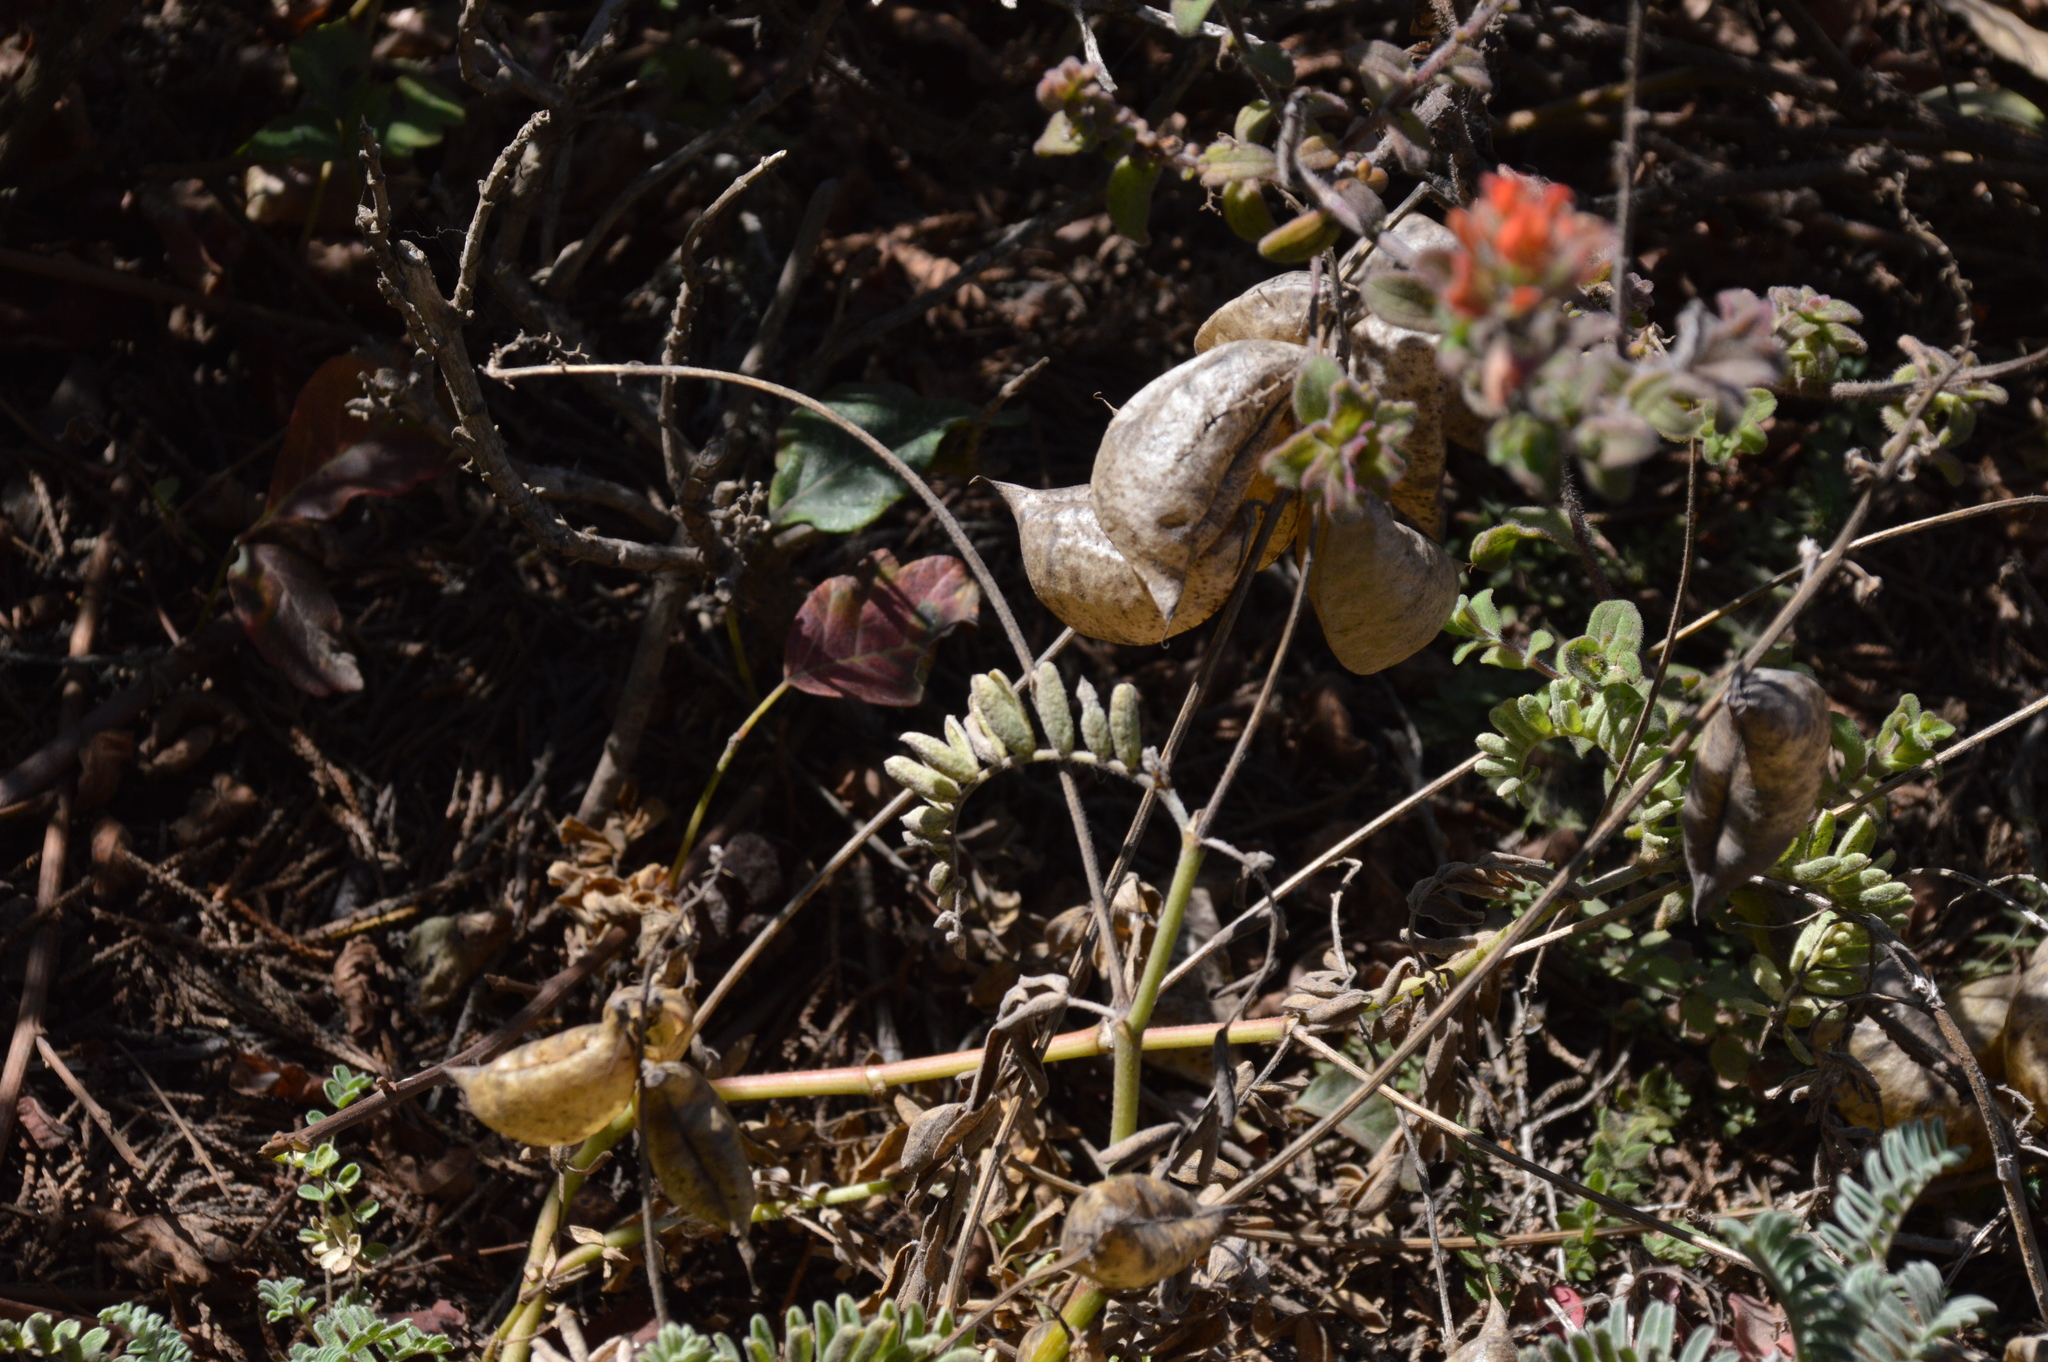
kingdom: Plantae
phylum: Tracheophyta
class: Magnoliopsida
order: Fabales
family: Fabaceae
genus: Astragalus
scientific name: Astragalus nuttallii
